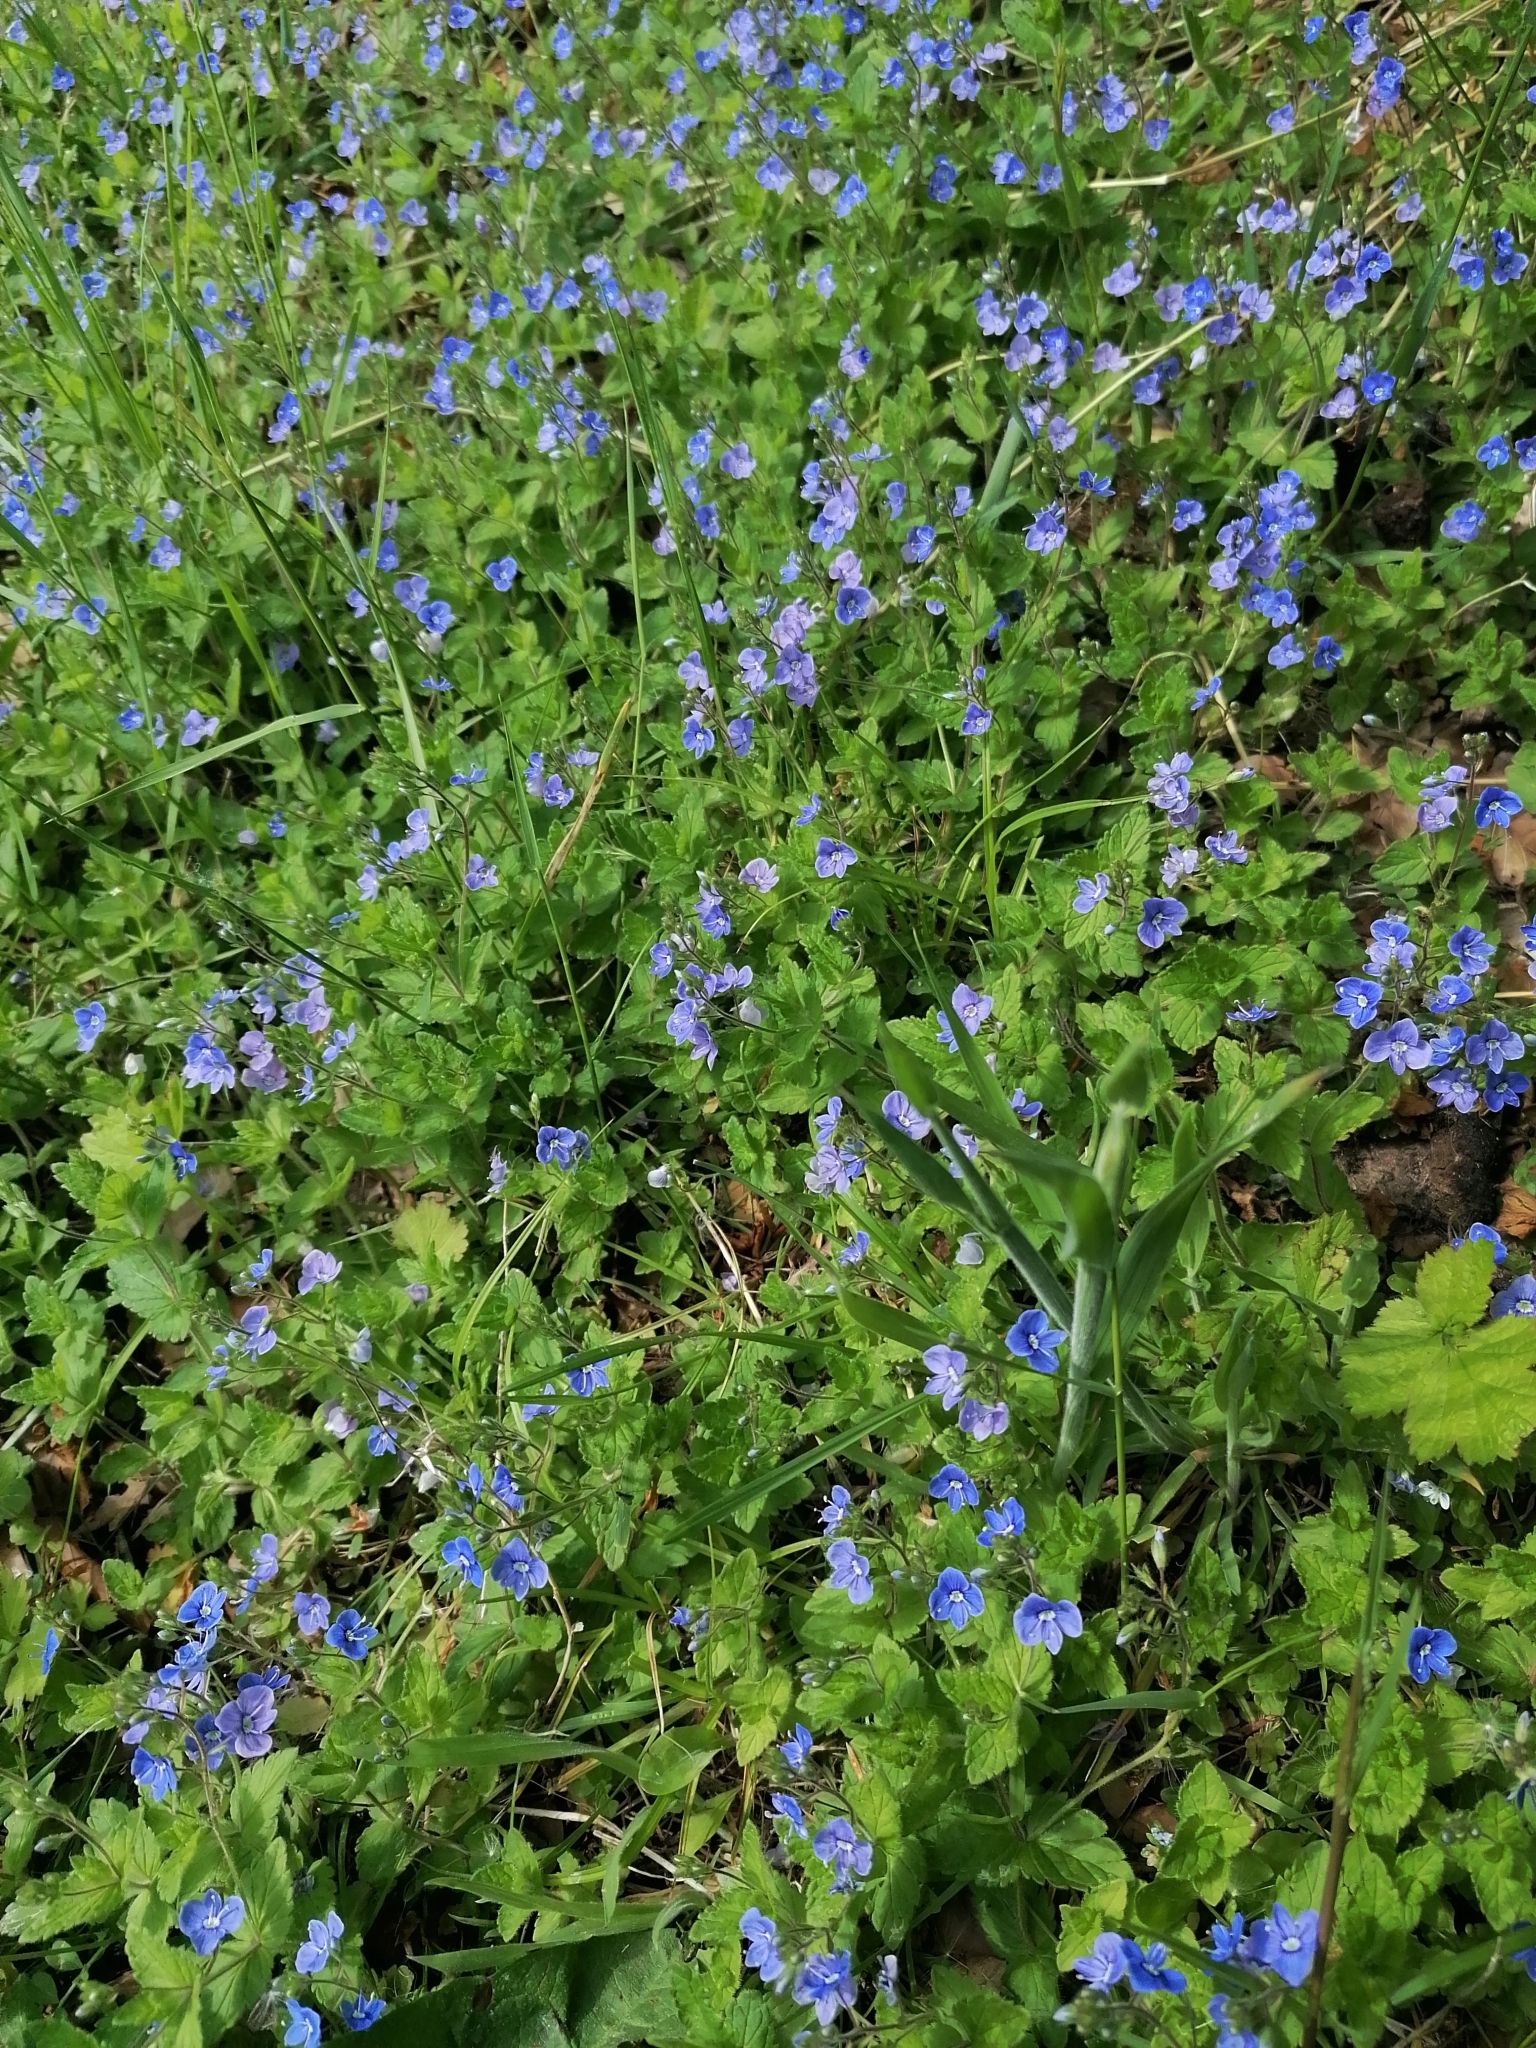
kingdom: Plantae
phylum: Tracheophyta
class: Magnoliopsida
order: Lamiales
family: Plantaginaceae
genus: Veronica
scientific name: Veronica chamaedrys
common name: Germander speedwell
